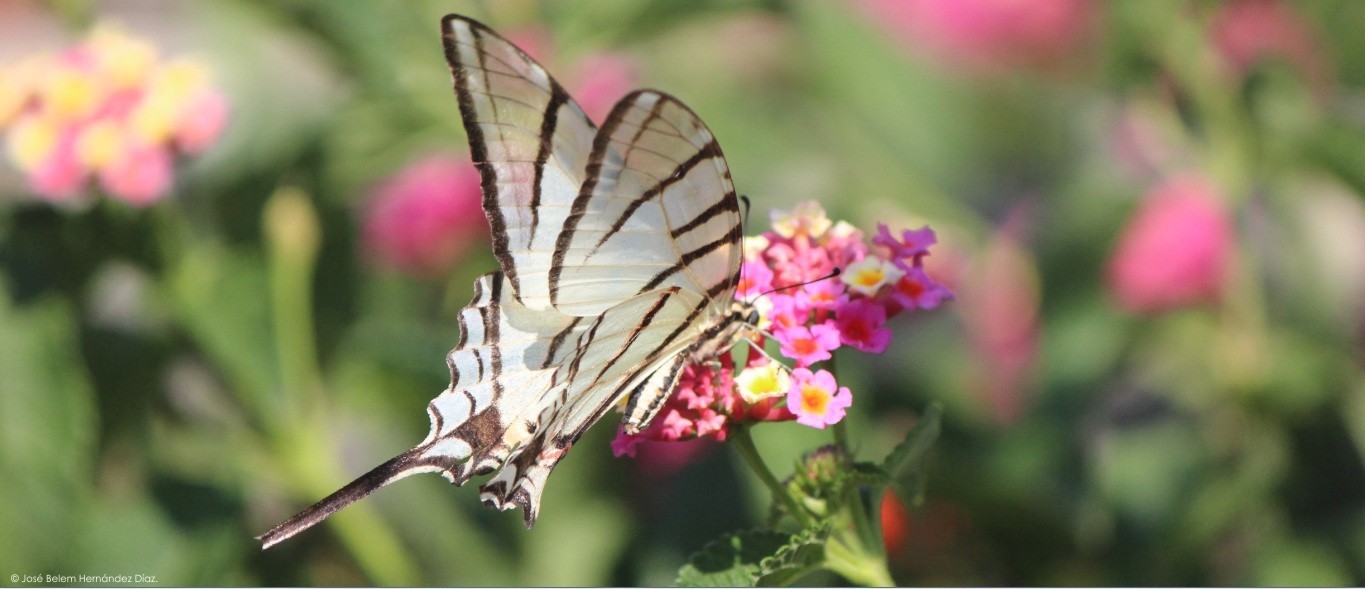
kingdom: Animalia
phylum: Arthropoda
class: Insecta
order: Lepidoptera
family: Papilionidae
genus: Protographium
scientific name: Protographium epidaus
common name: Mexican kite swallowtail
